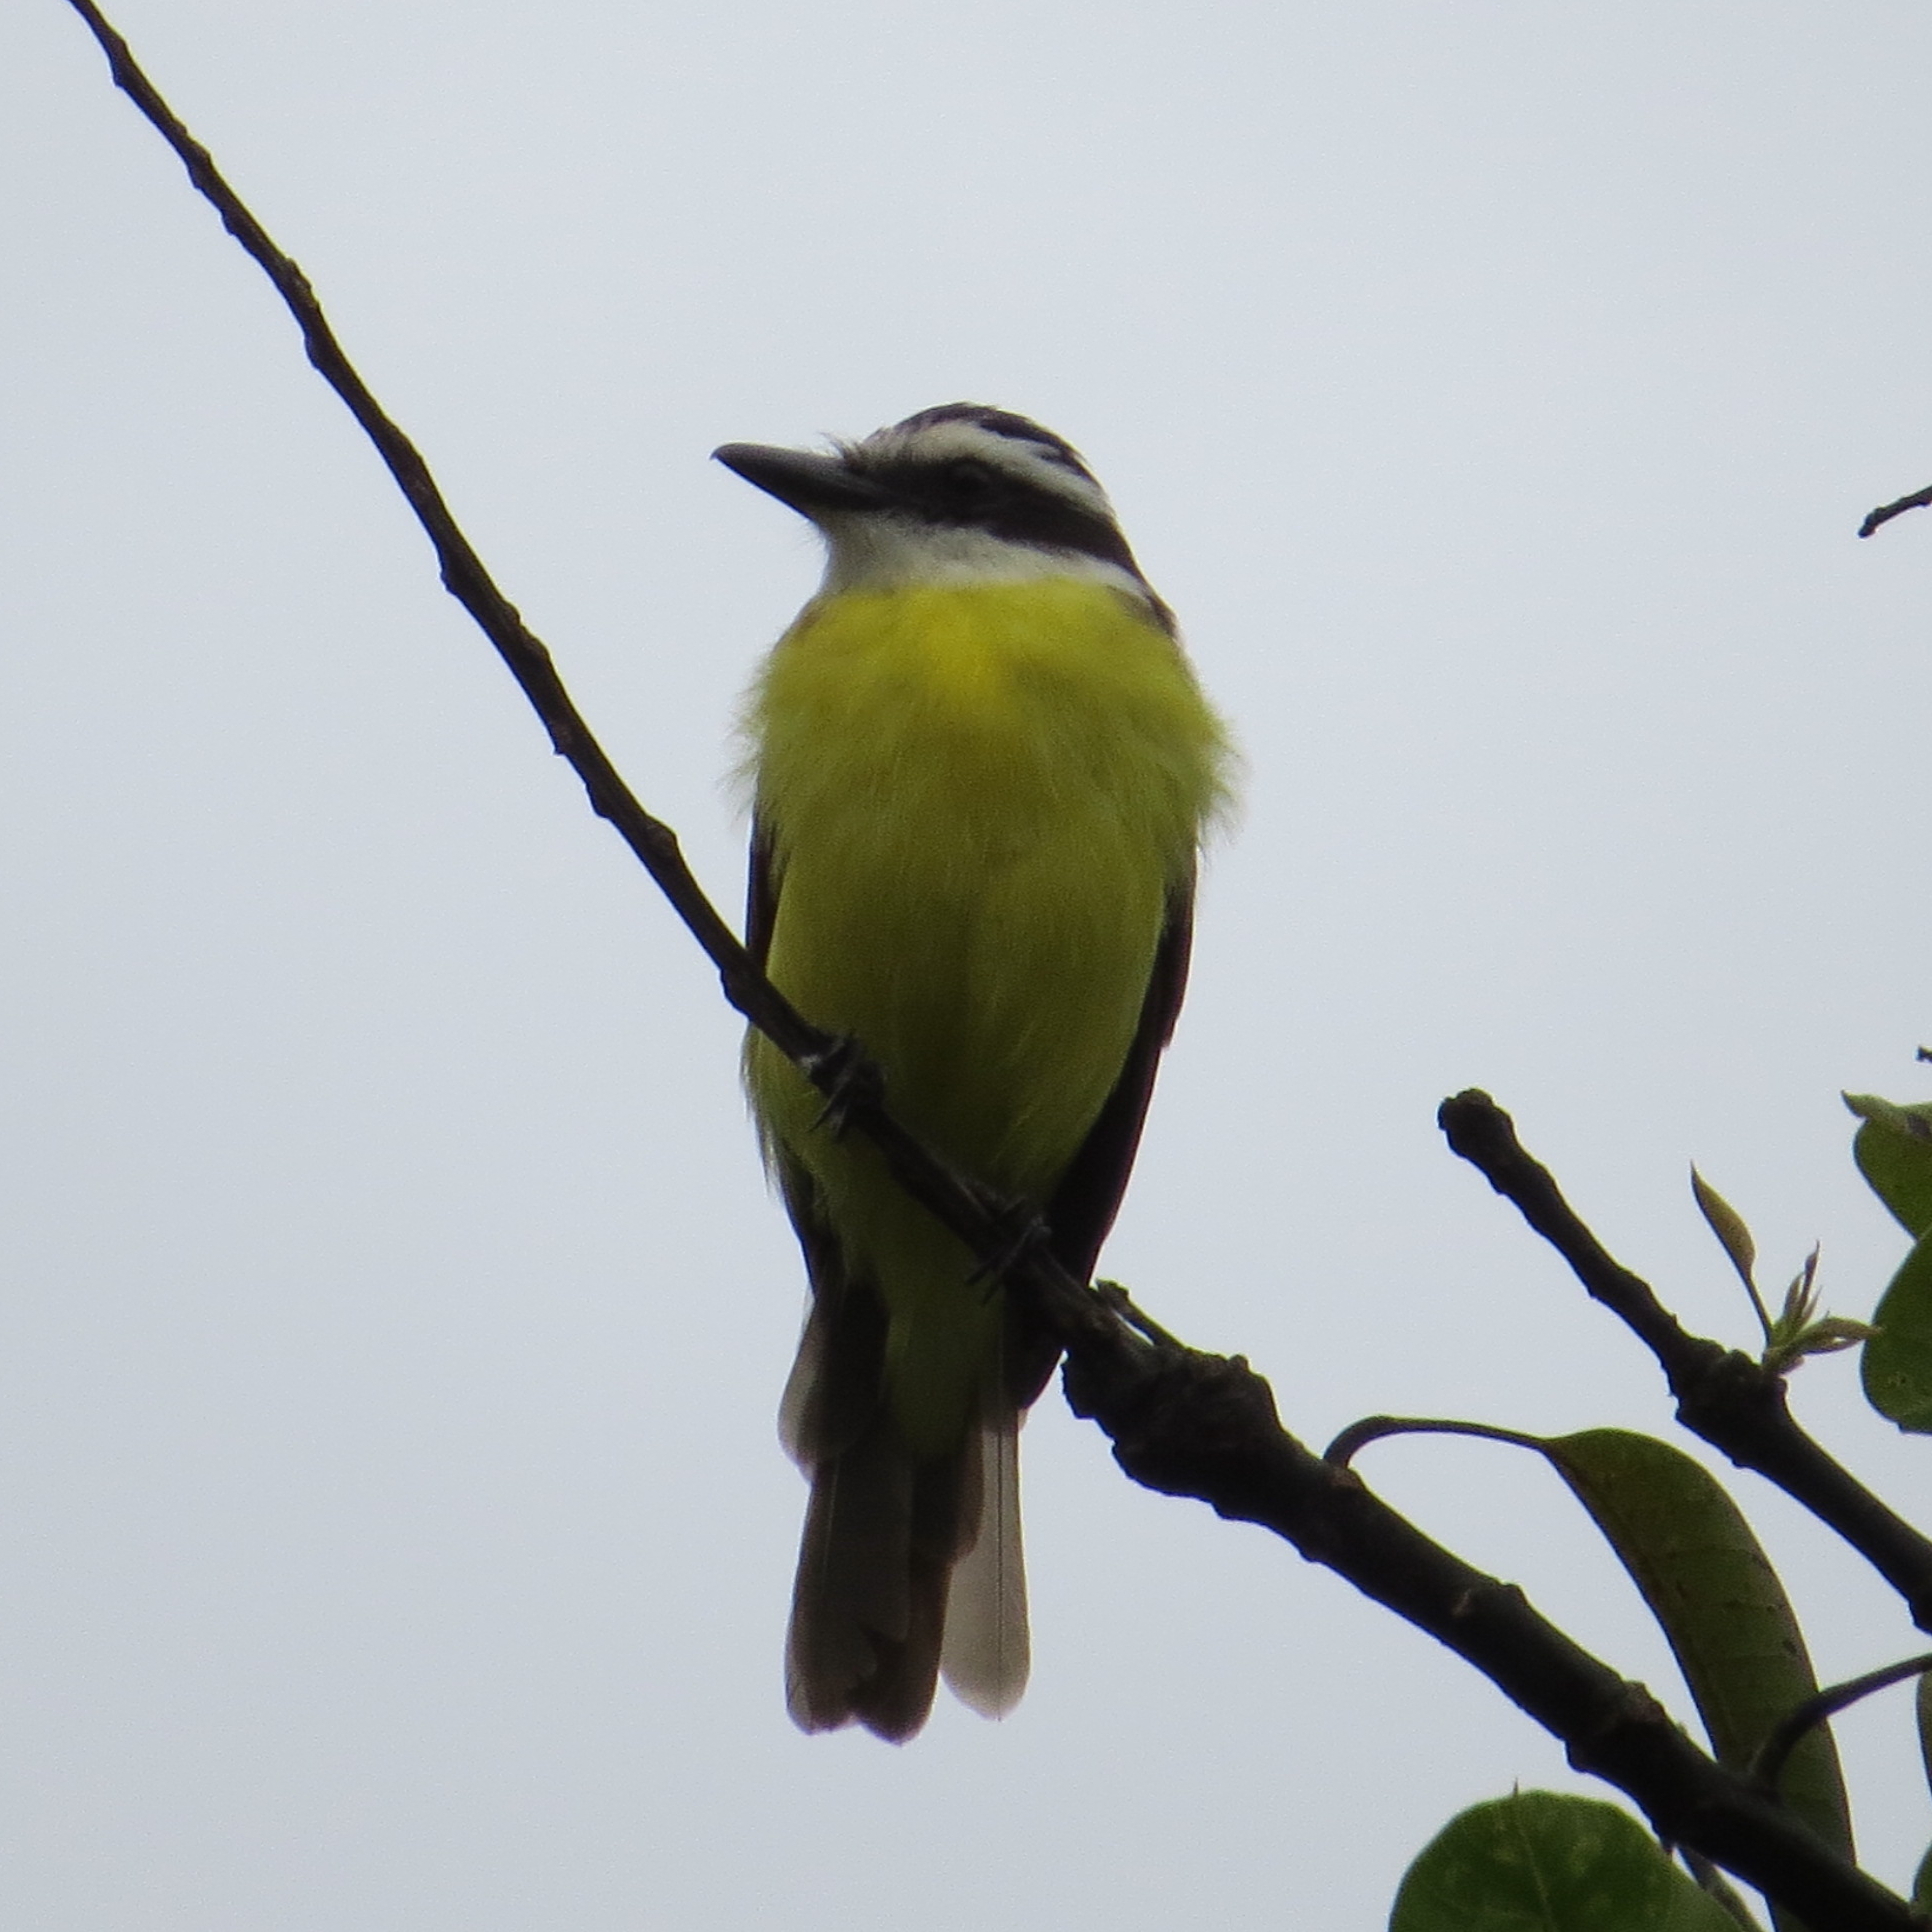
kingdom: Animalia
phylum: Chordata
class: Aves
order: Passeriformes
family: Tyrannidae
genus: Pitangus
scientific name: Pitangus sulphuratus
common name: Great kiskadee
